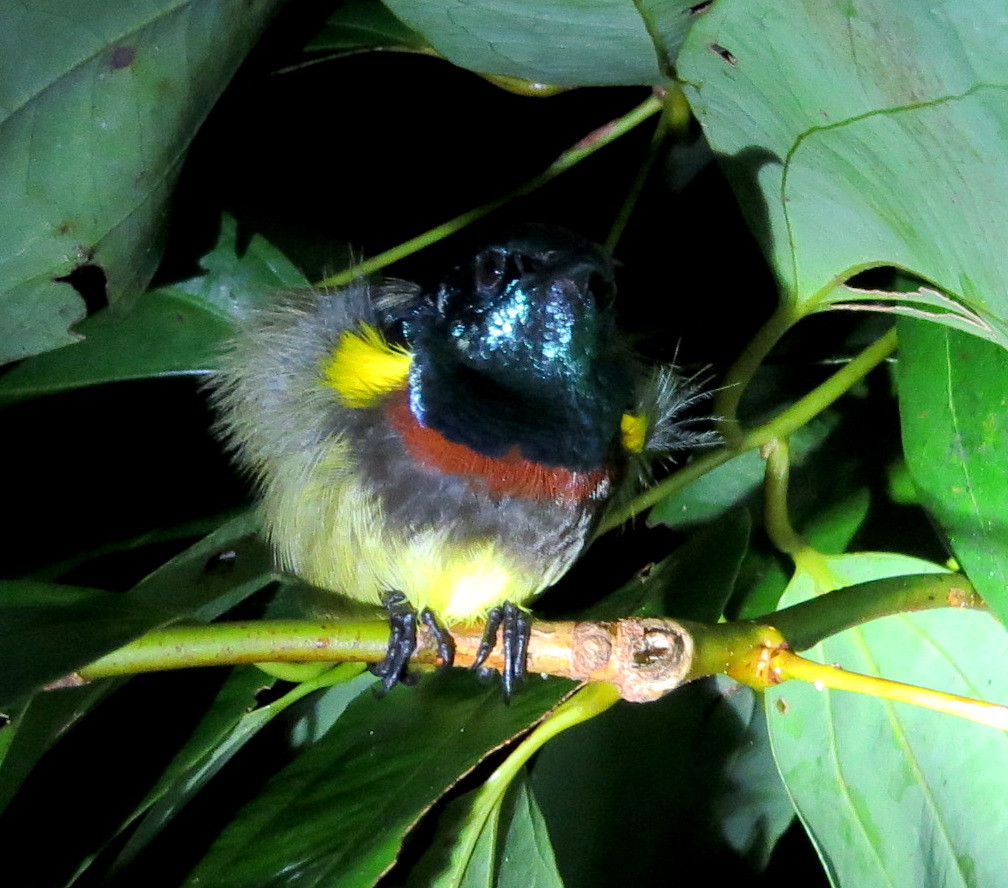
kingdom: Animalia
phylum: Chordata
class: Aves
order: Passeriformes
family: Nectariniidae
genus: Cinnyris
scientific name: Cinnyris sovimanga
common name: Souimanga sunbird
